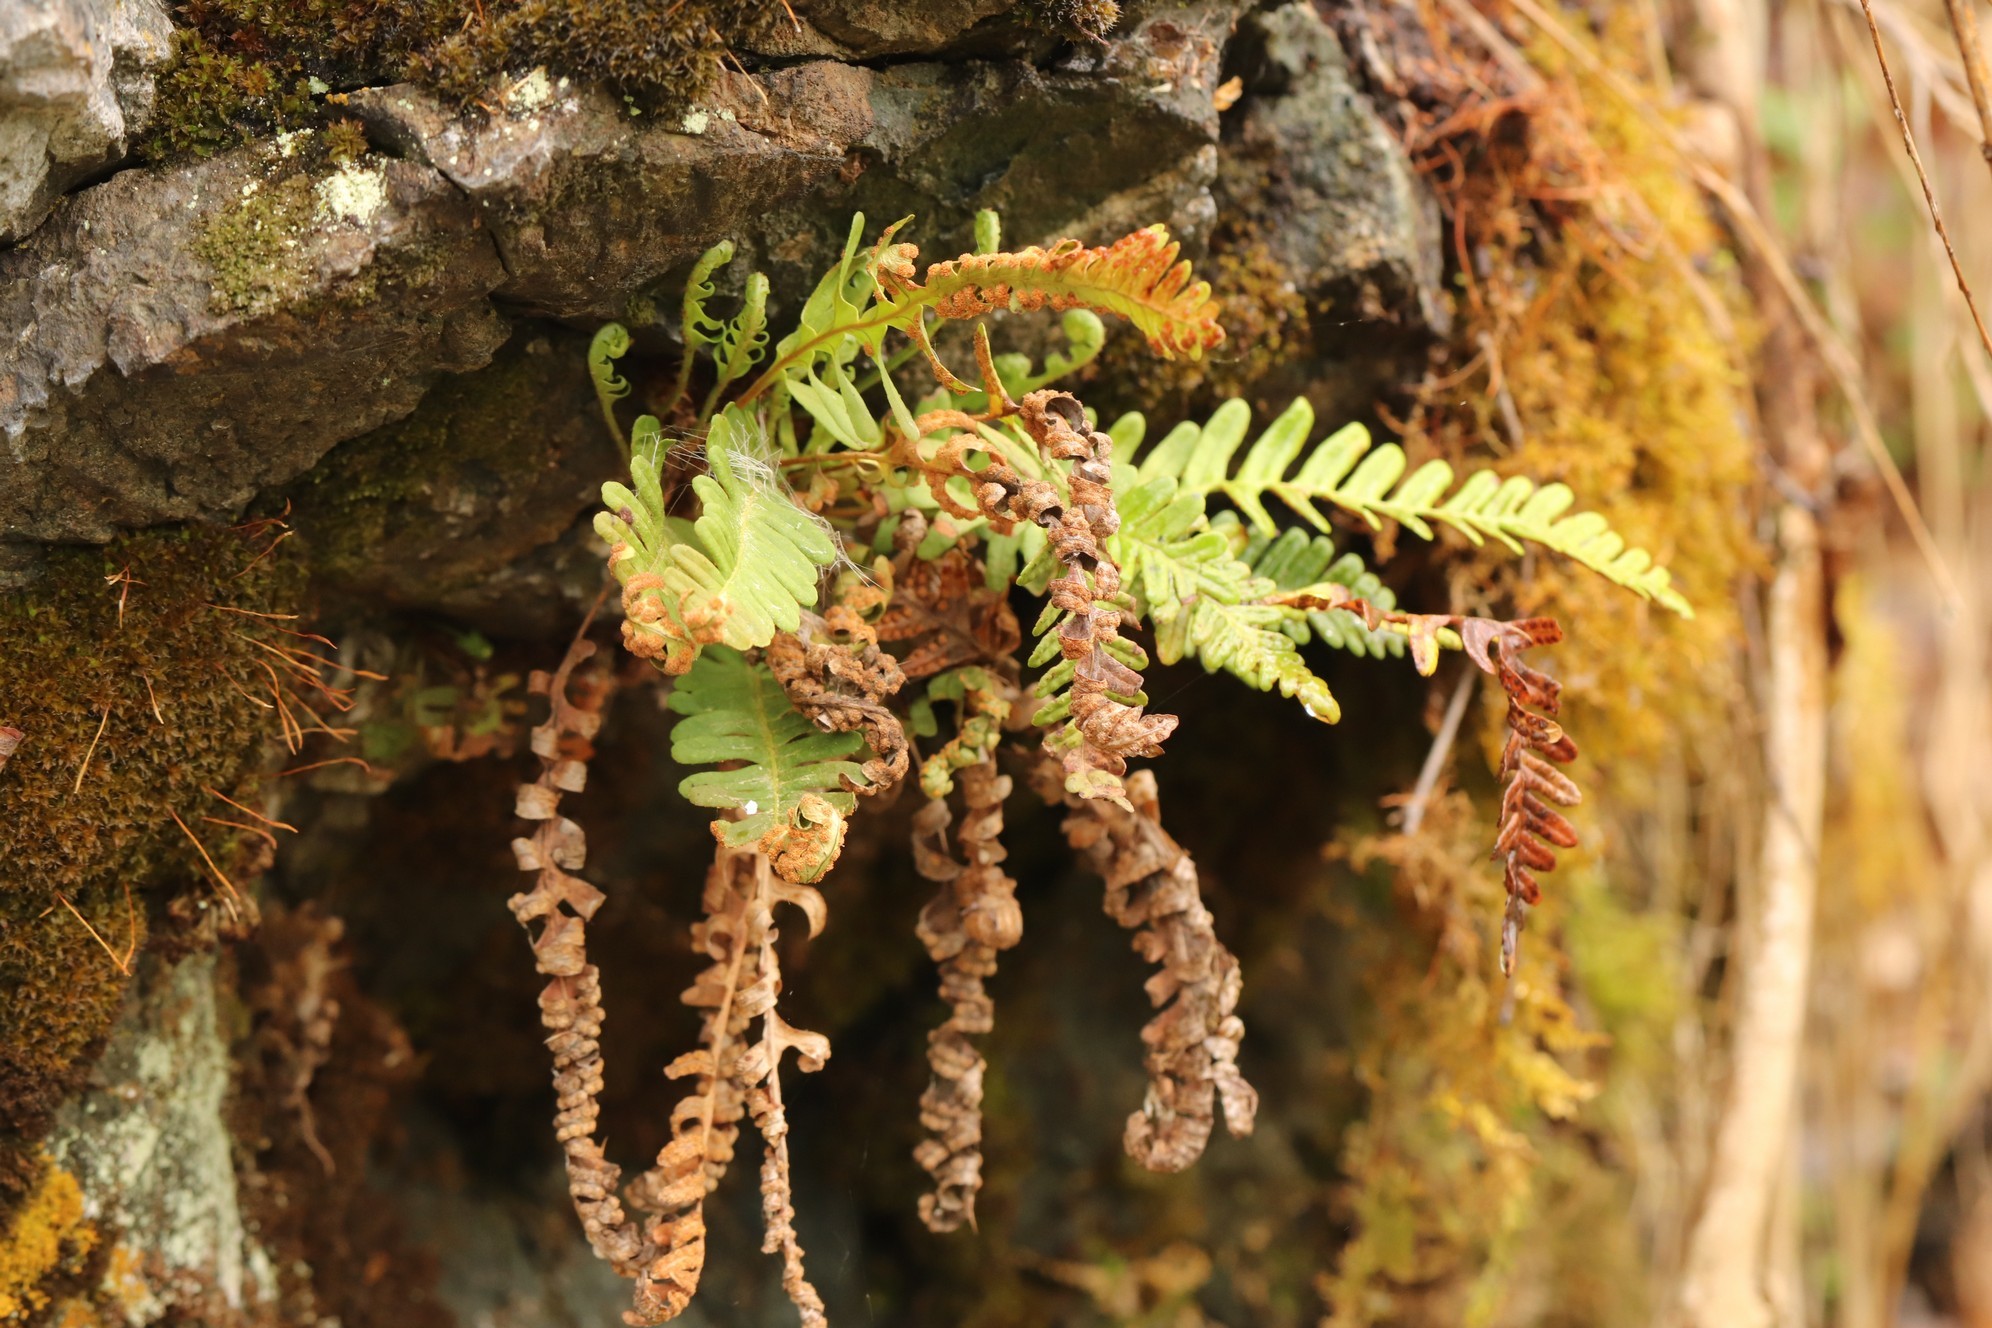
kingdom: Plantae
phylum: Tracheophyta
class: Polypodiopsida
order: Polypodiales
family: Polypodiaceae
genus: Polypodium
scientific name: Polypodium vulgare
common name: Common polypody
